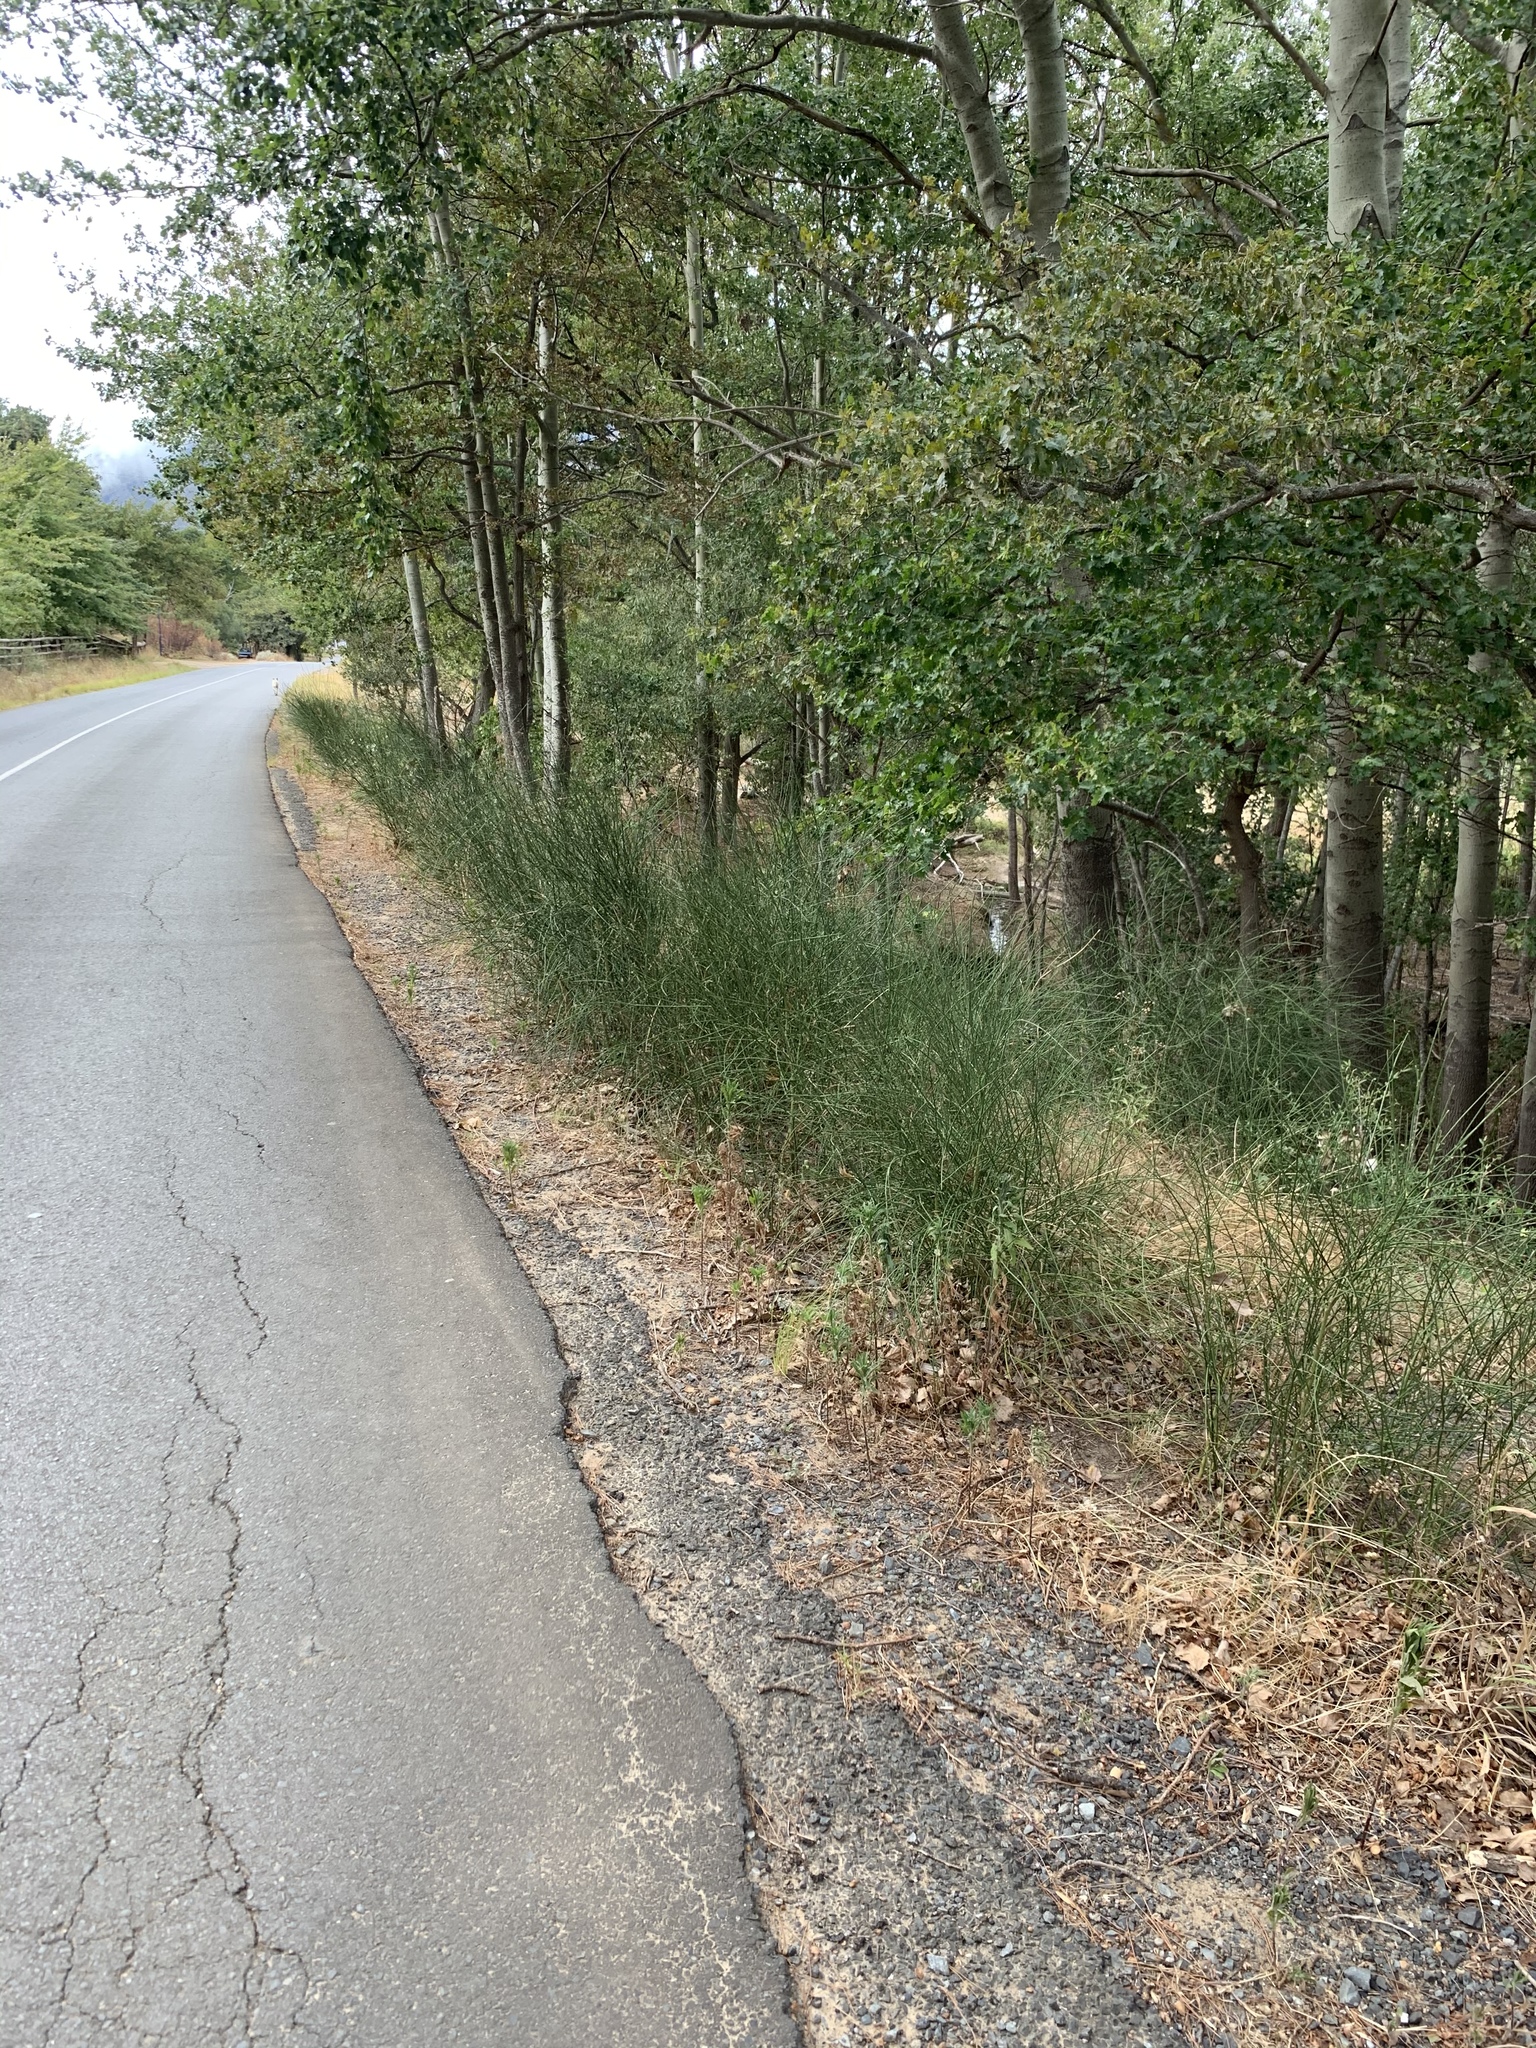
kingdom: Plantae
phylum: Tracheophyta
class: Magnoliopsida
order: Fabales
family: Fabaceae
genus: Spartium
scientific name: Spartium junceum
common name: Spanish broom
